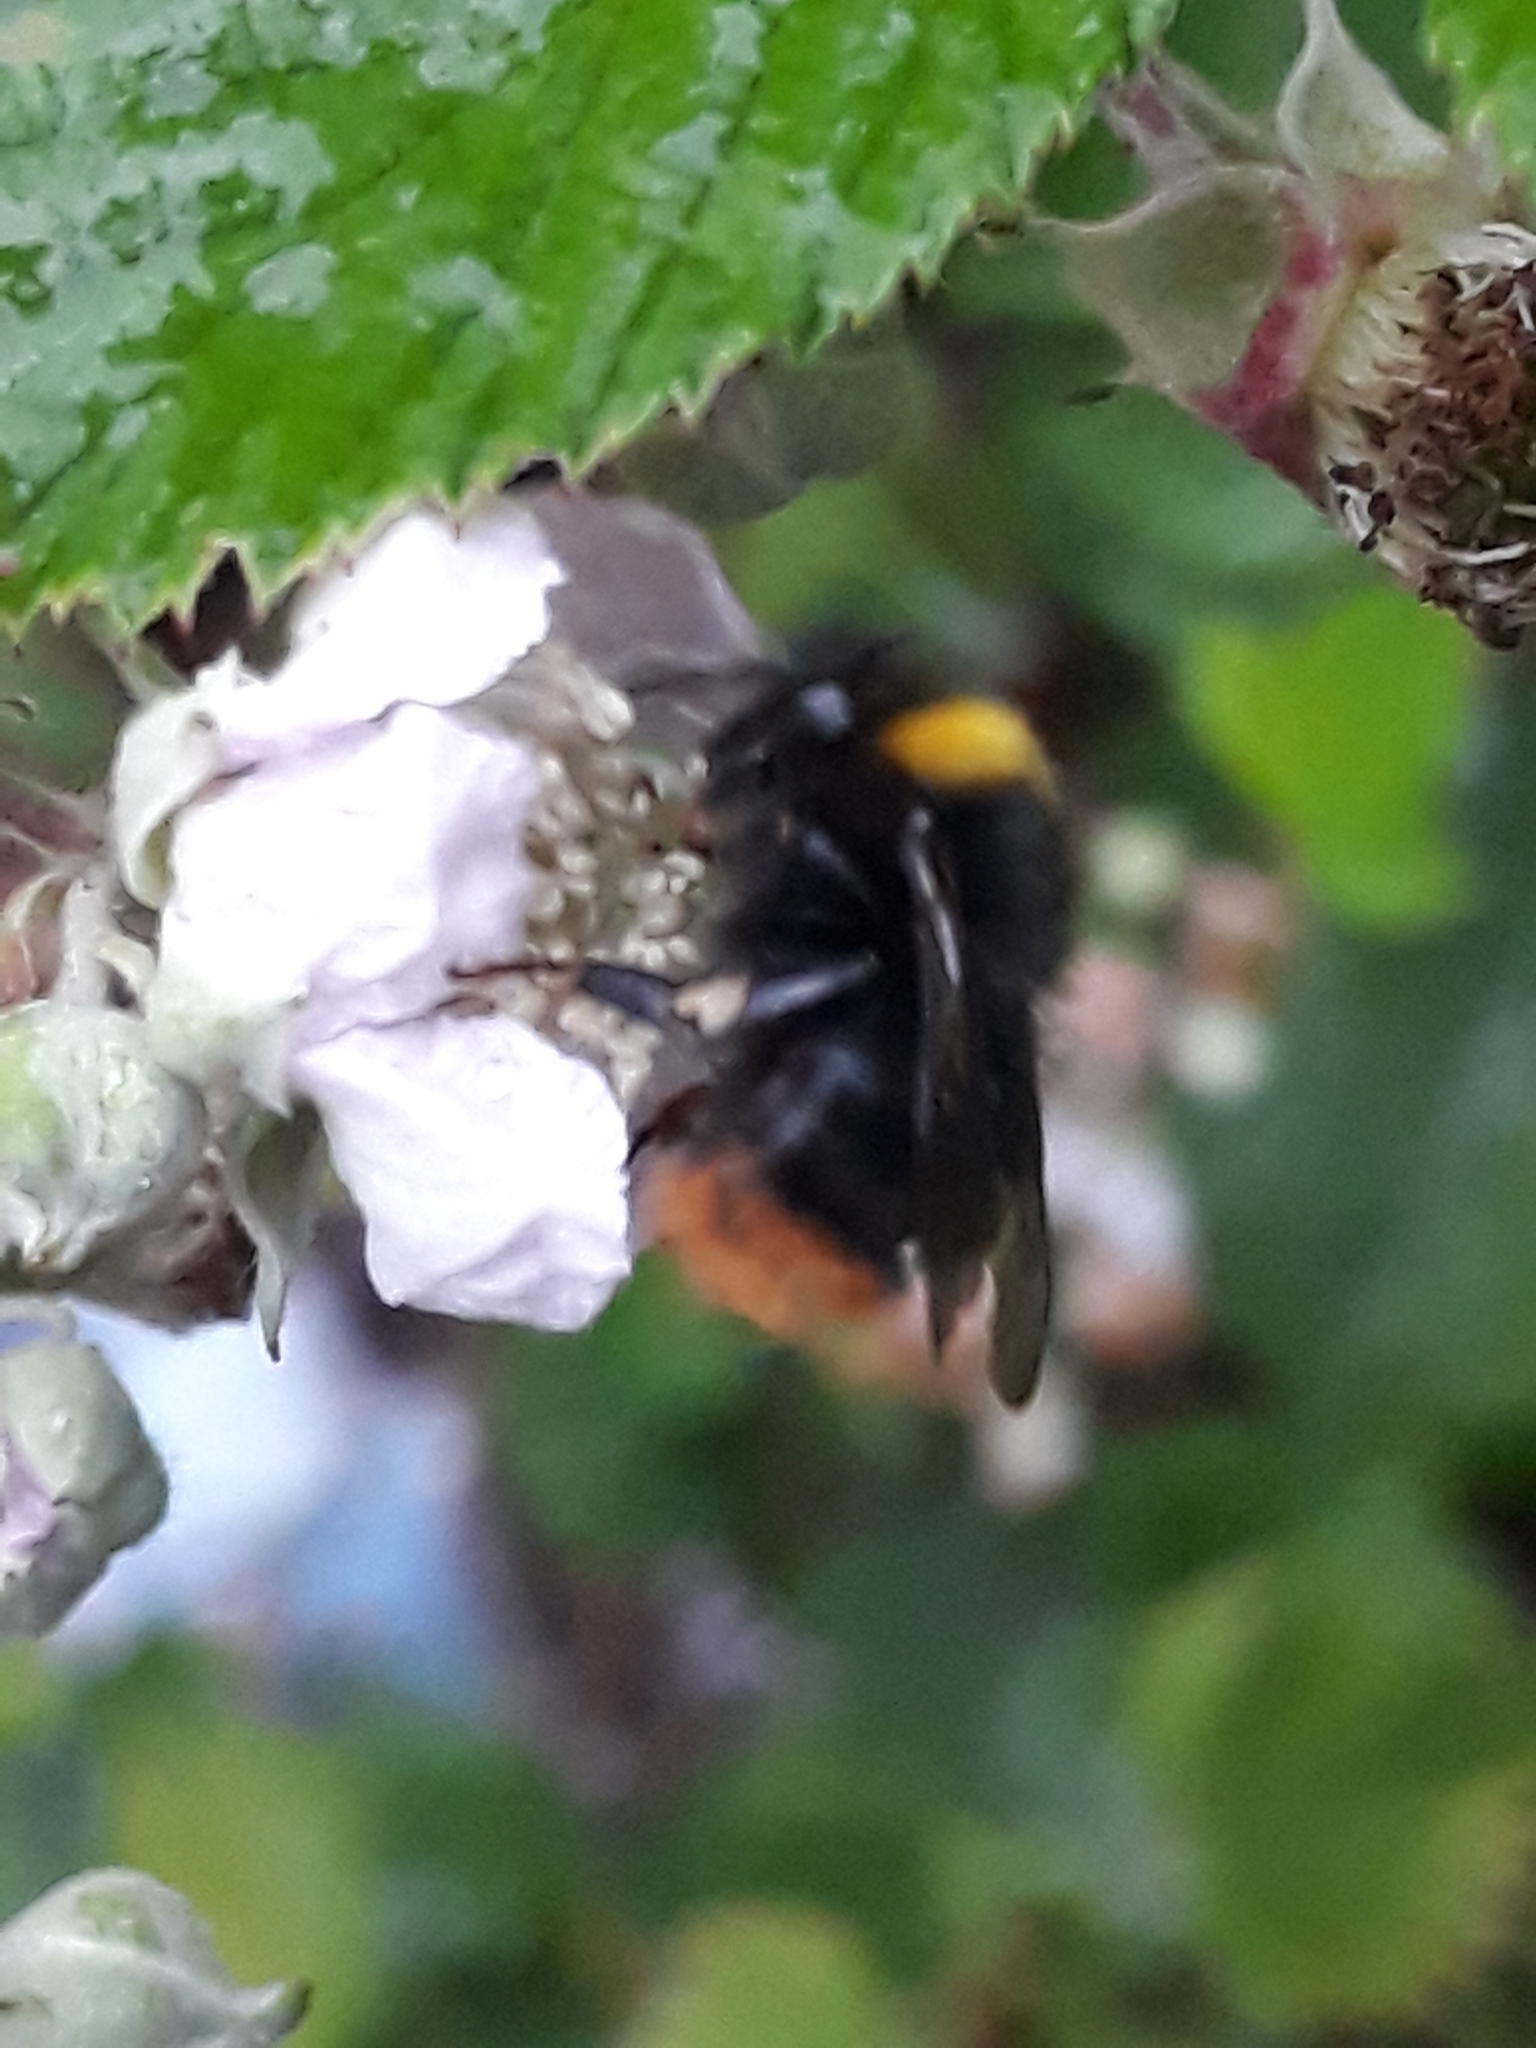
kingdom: Animalia
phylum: Arthropoda
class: Insecta
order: Hymenoptera
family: Apidae
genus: Bombus
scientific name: Bombus pratorum
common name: Early humble-bee
